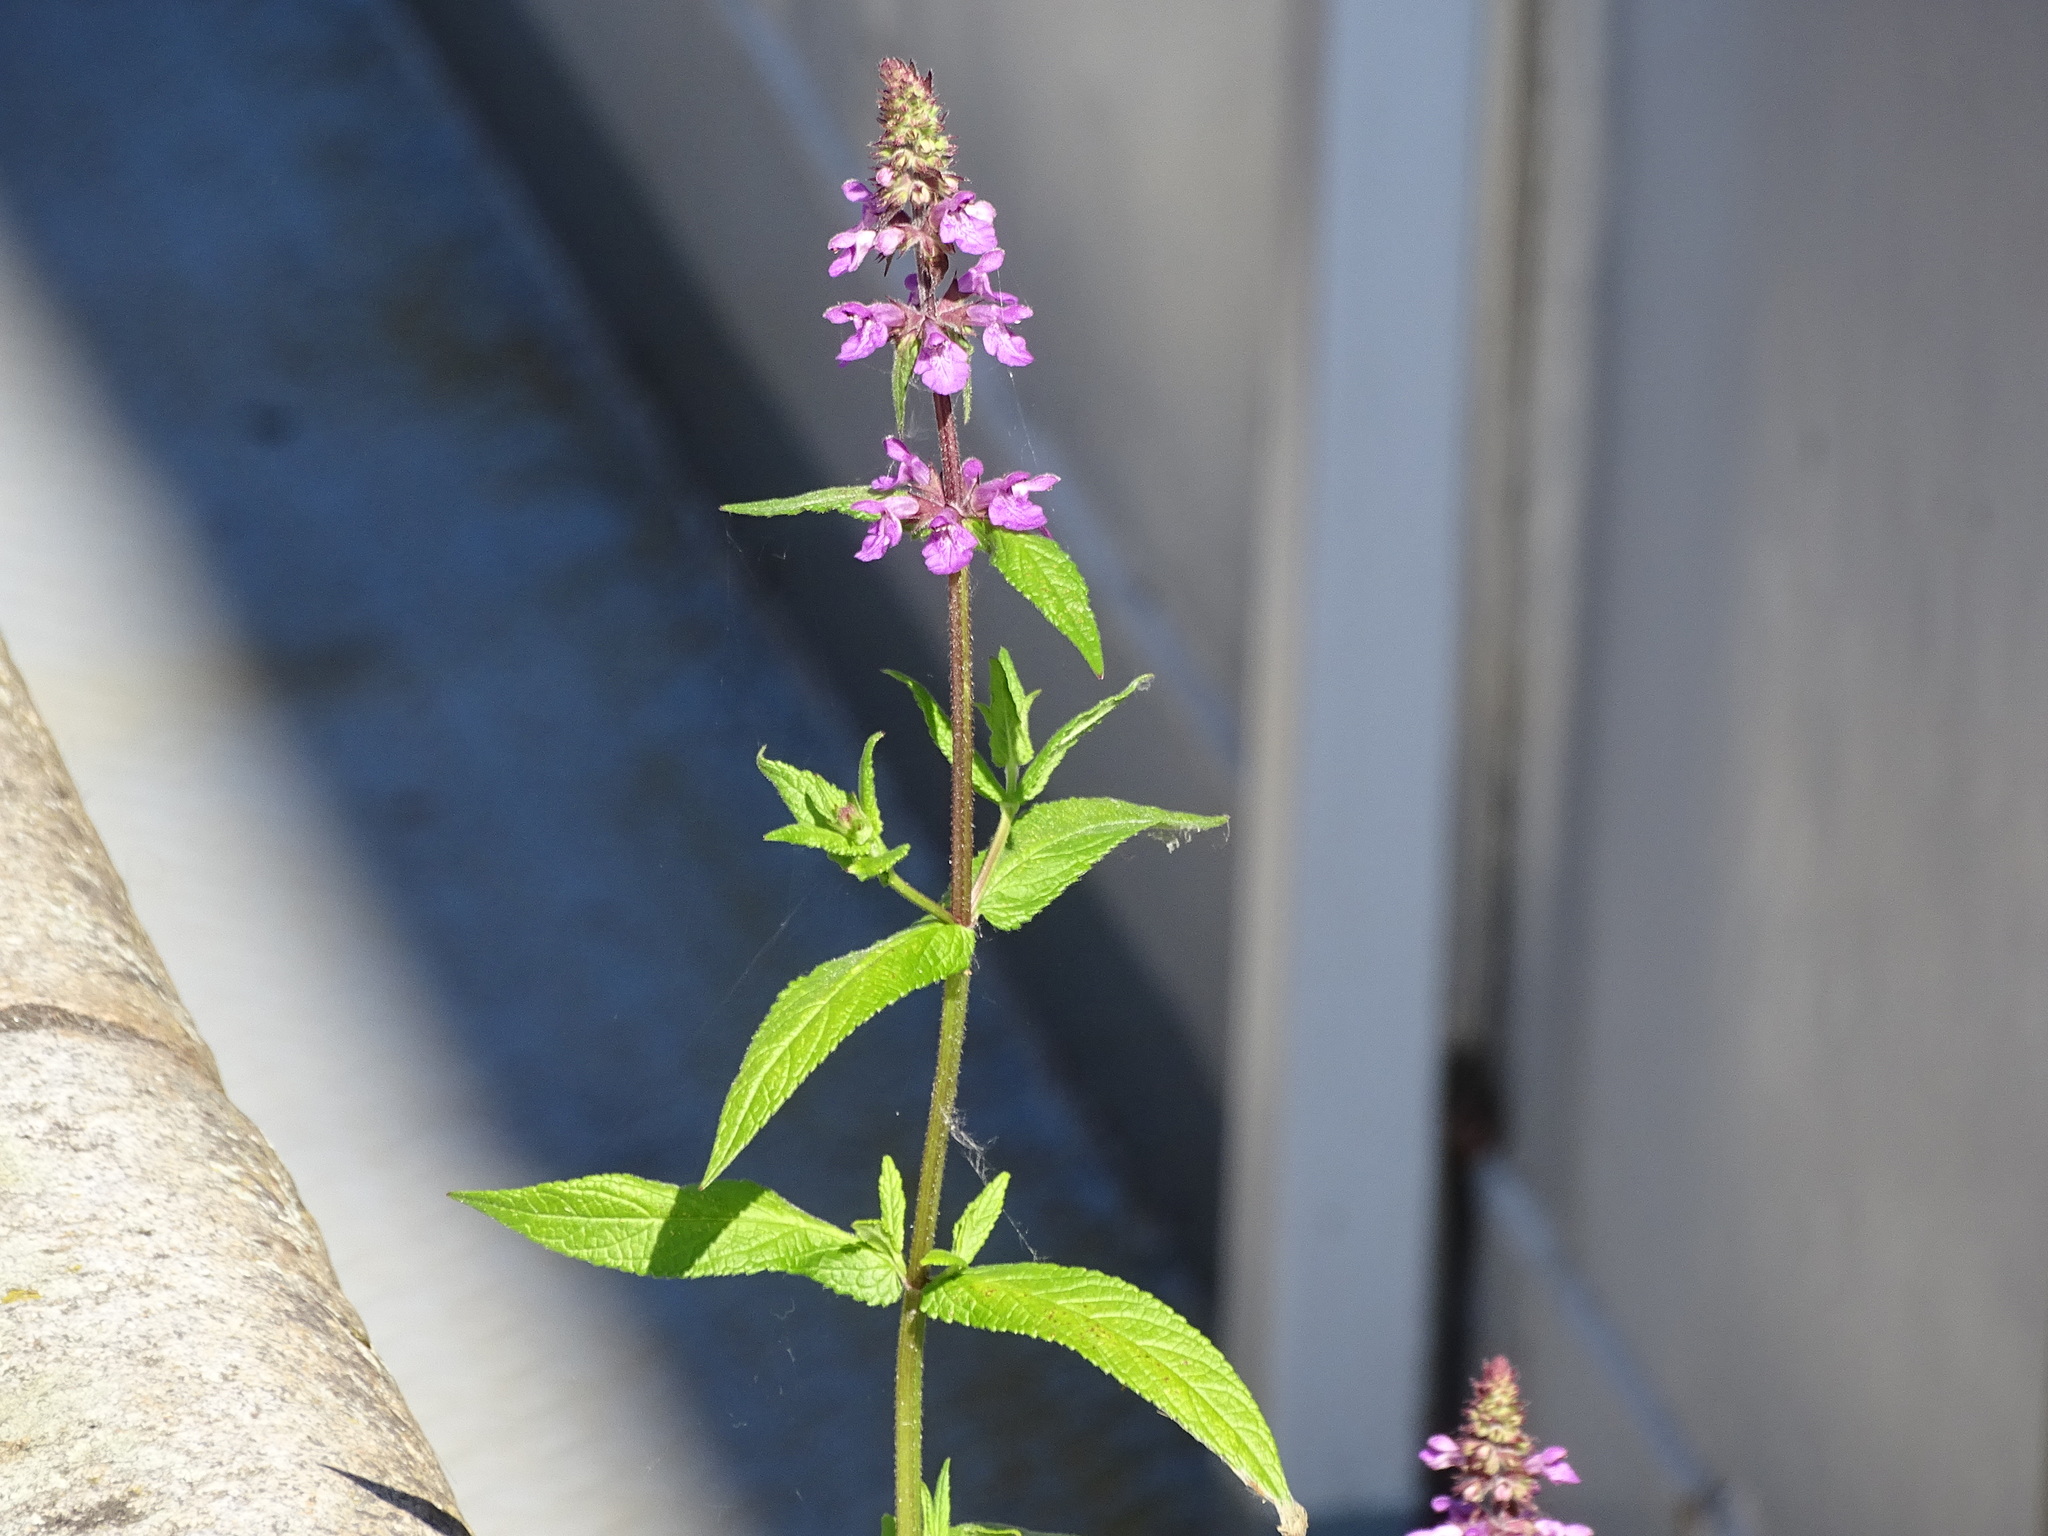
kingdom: Plantae
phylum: Tracheophyta
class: Magnoliopsida
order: Lamiales
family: Lamiaceae
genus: Stachys
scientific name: Stachys palustris
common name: Marsh woundwort
